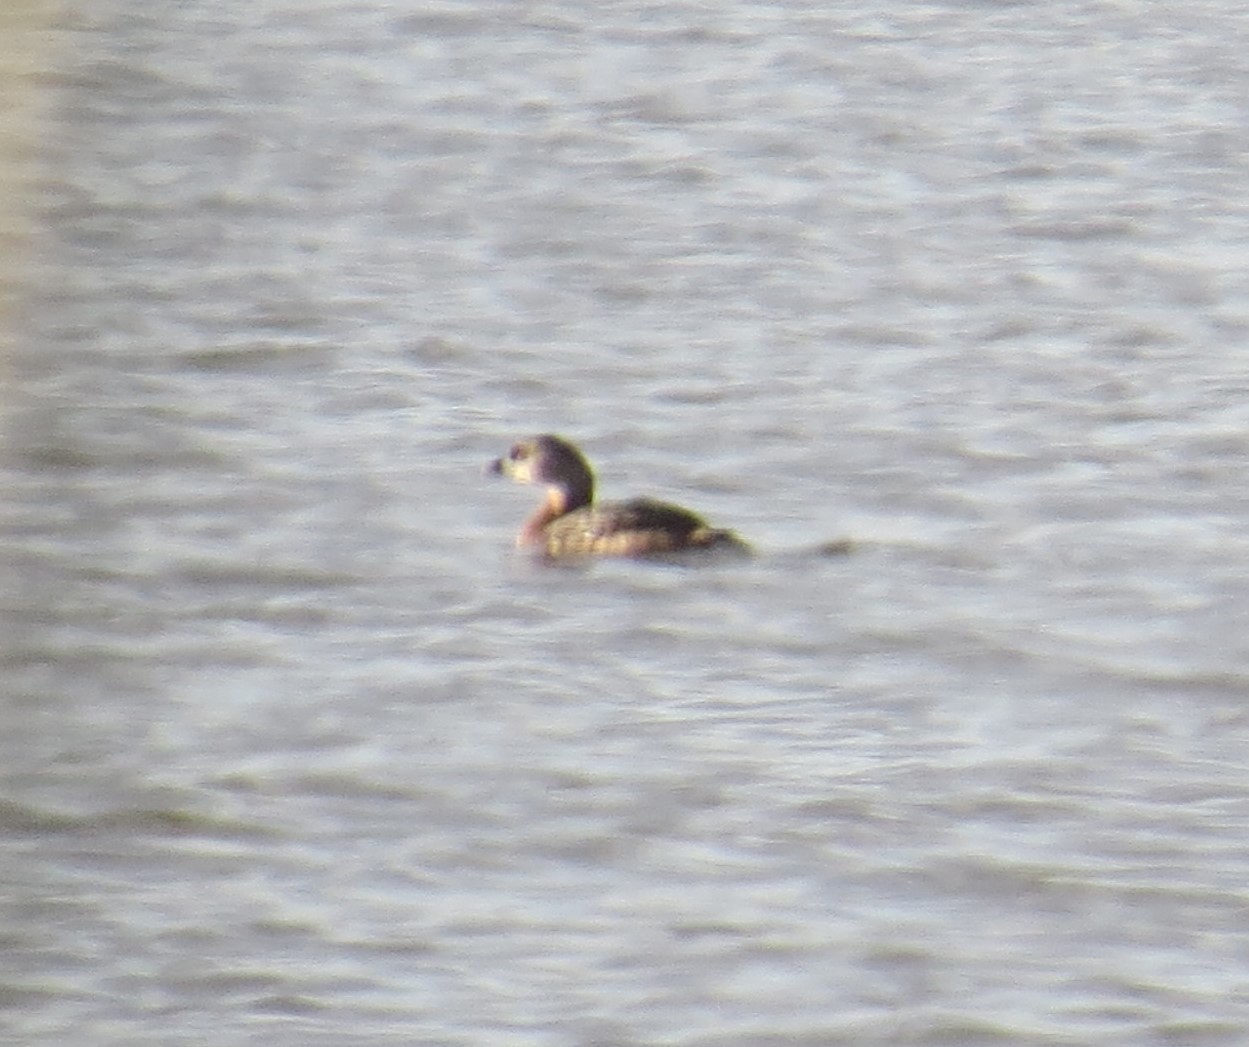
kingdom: Animalia
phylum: Chordata
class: Aves
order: Podicipediformes
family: Podicipedidae
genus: Podilymbus
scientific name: Podilymbus podiceps
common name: Pied-billed grebe
